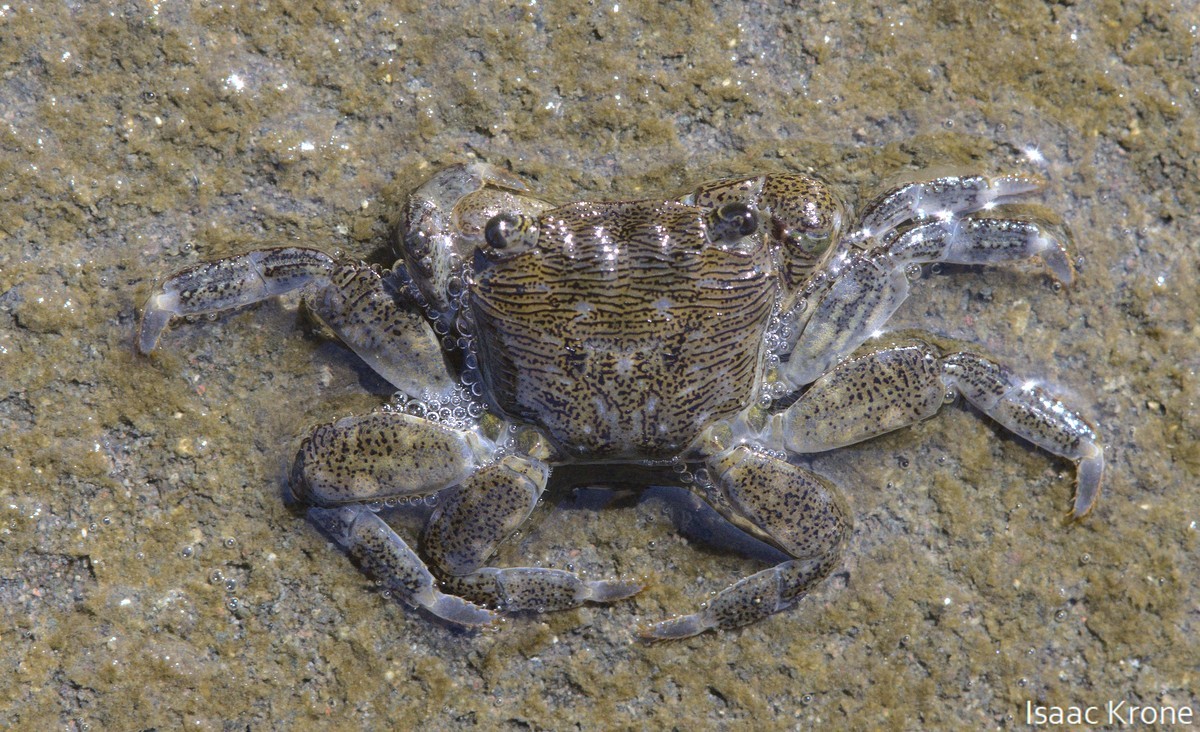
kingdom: Animalia
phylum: Arthropoda
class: Malacostraca
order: Decapoda
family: Grapsidae
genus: Pachygrapsus
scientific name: Pachygrapsus crassipes
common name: Striped shore crab
